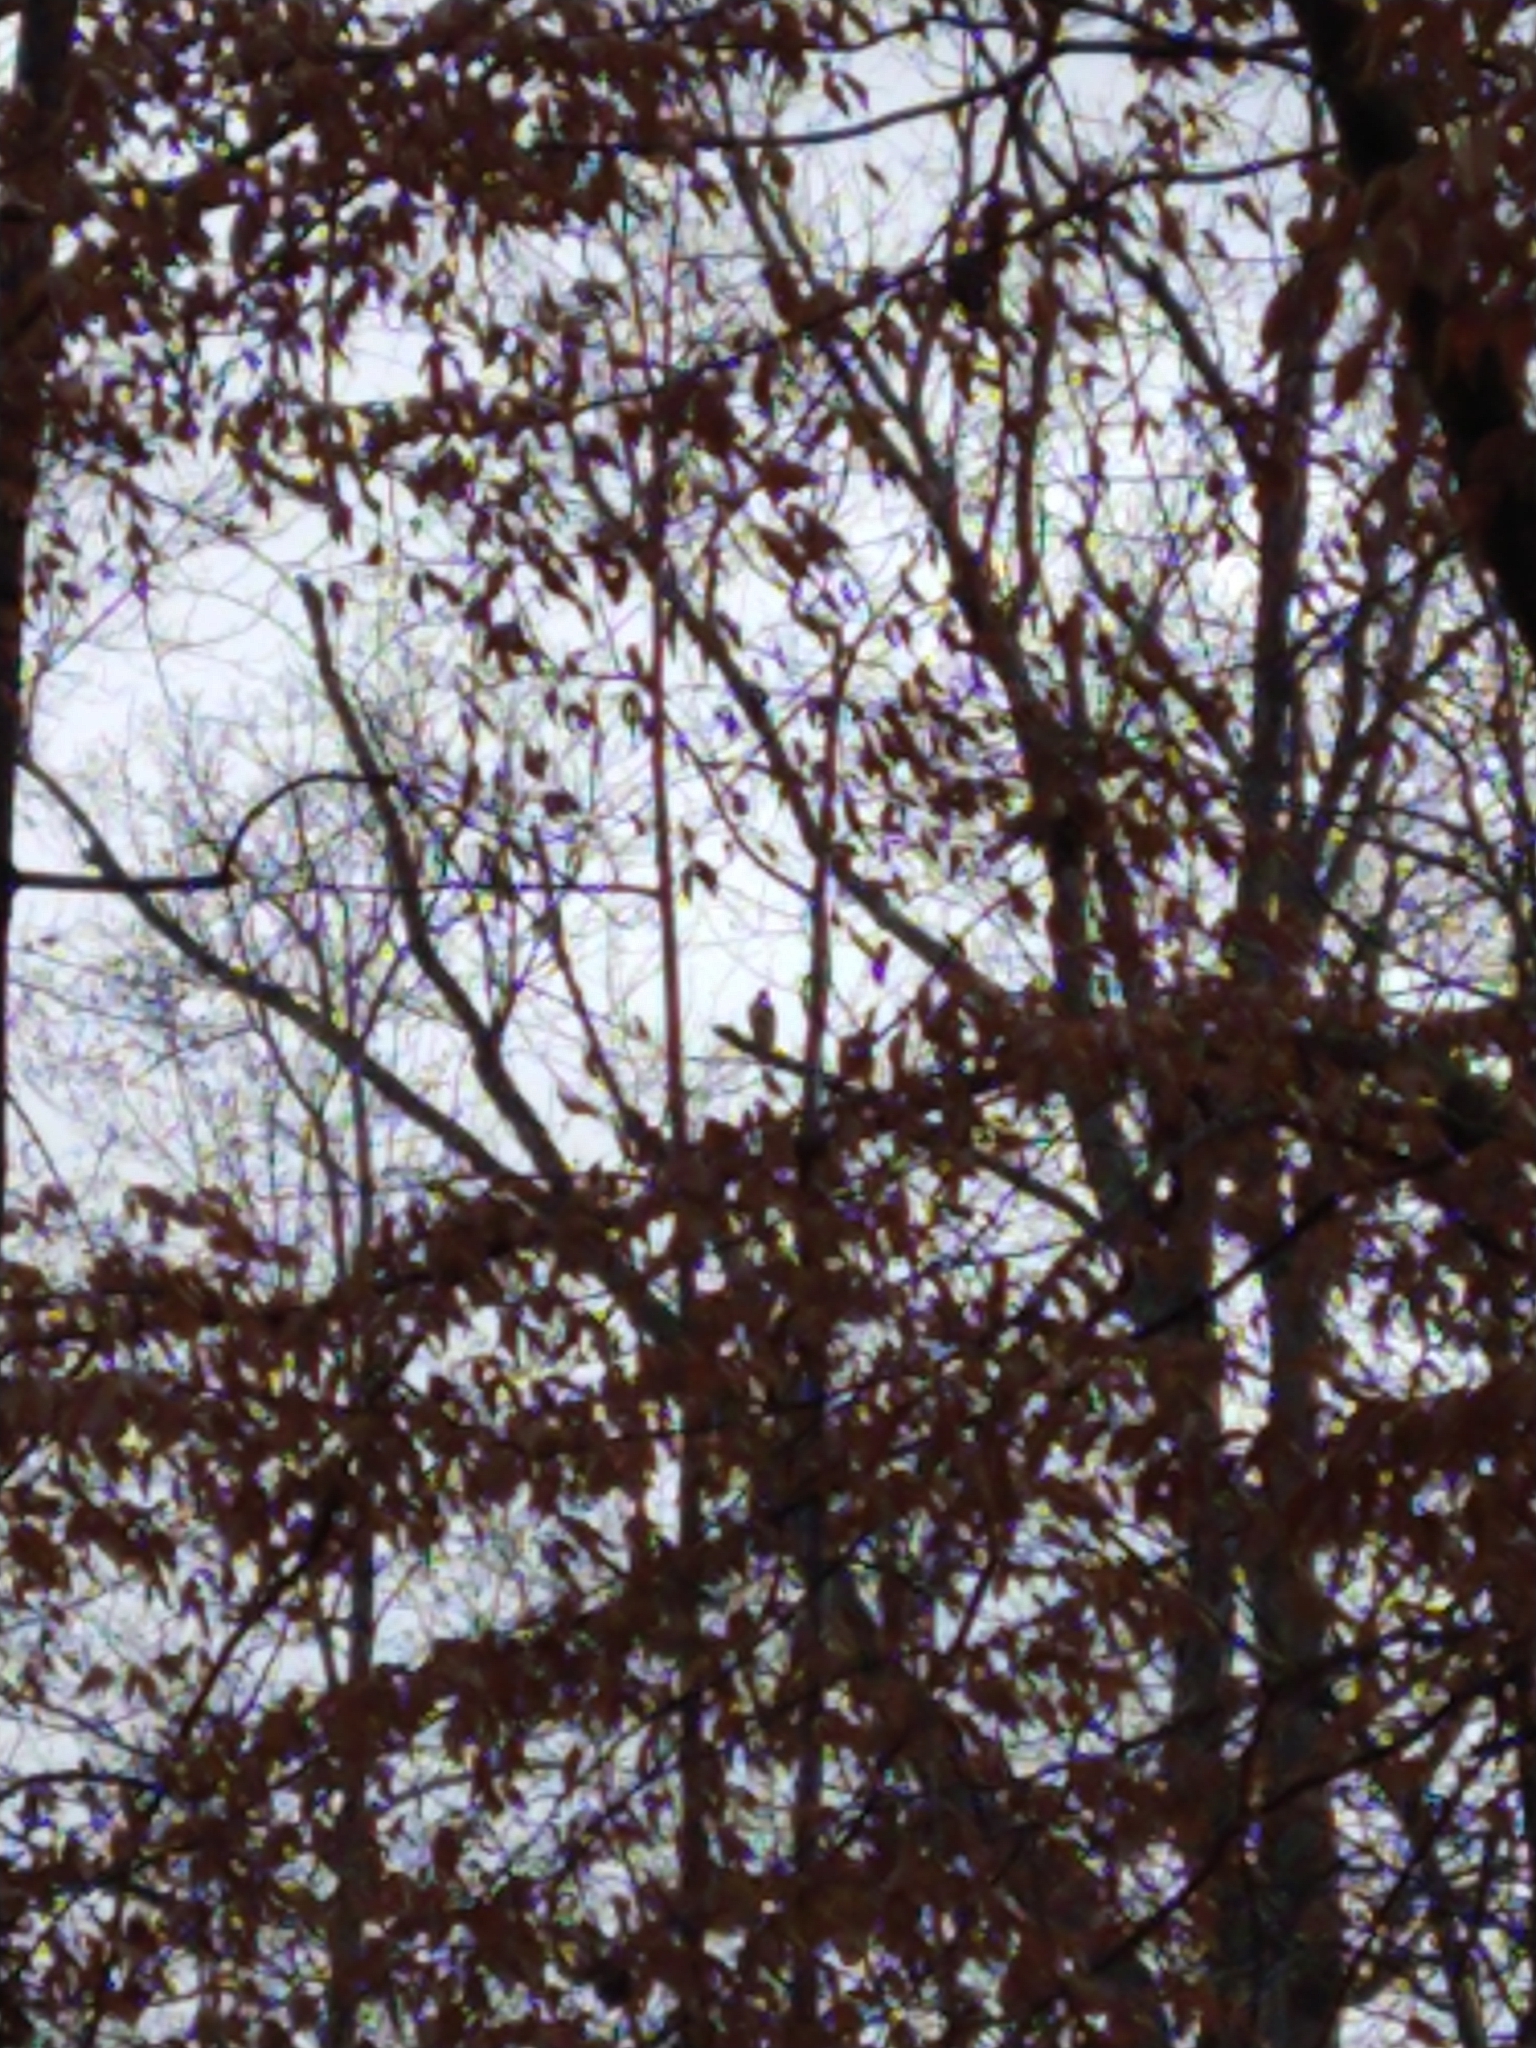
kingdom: Animalia
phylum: Chordata
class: Aves
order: Accipitriformes
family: Accipitridae
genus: Buteo
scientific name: Buteo jamaicensis
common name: Red-tailed hawk
